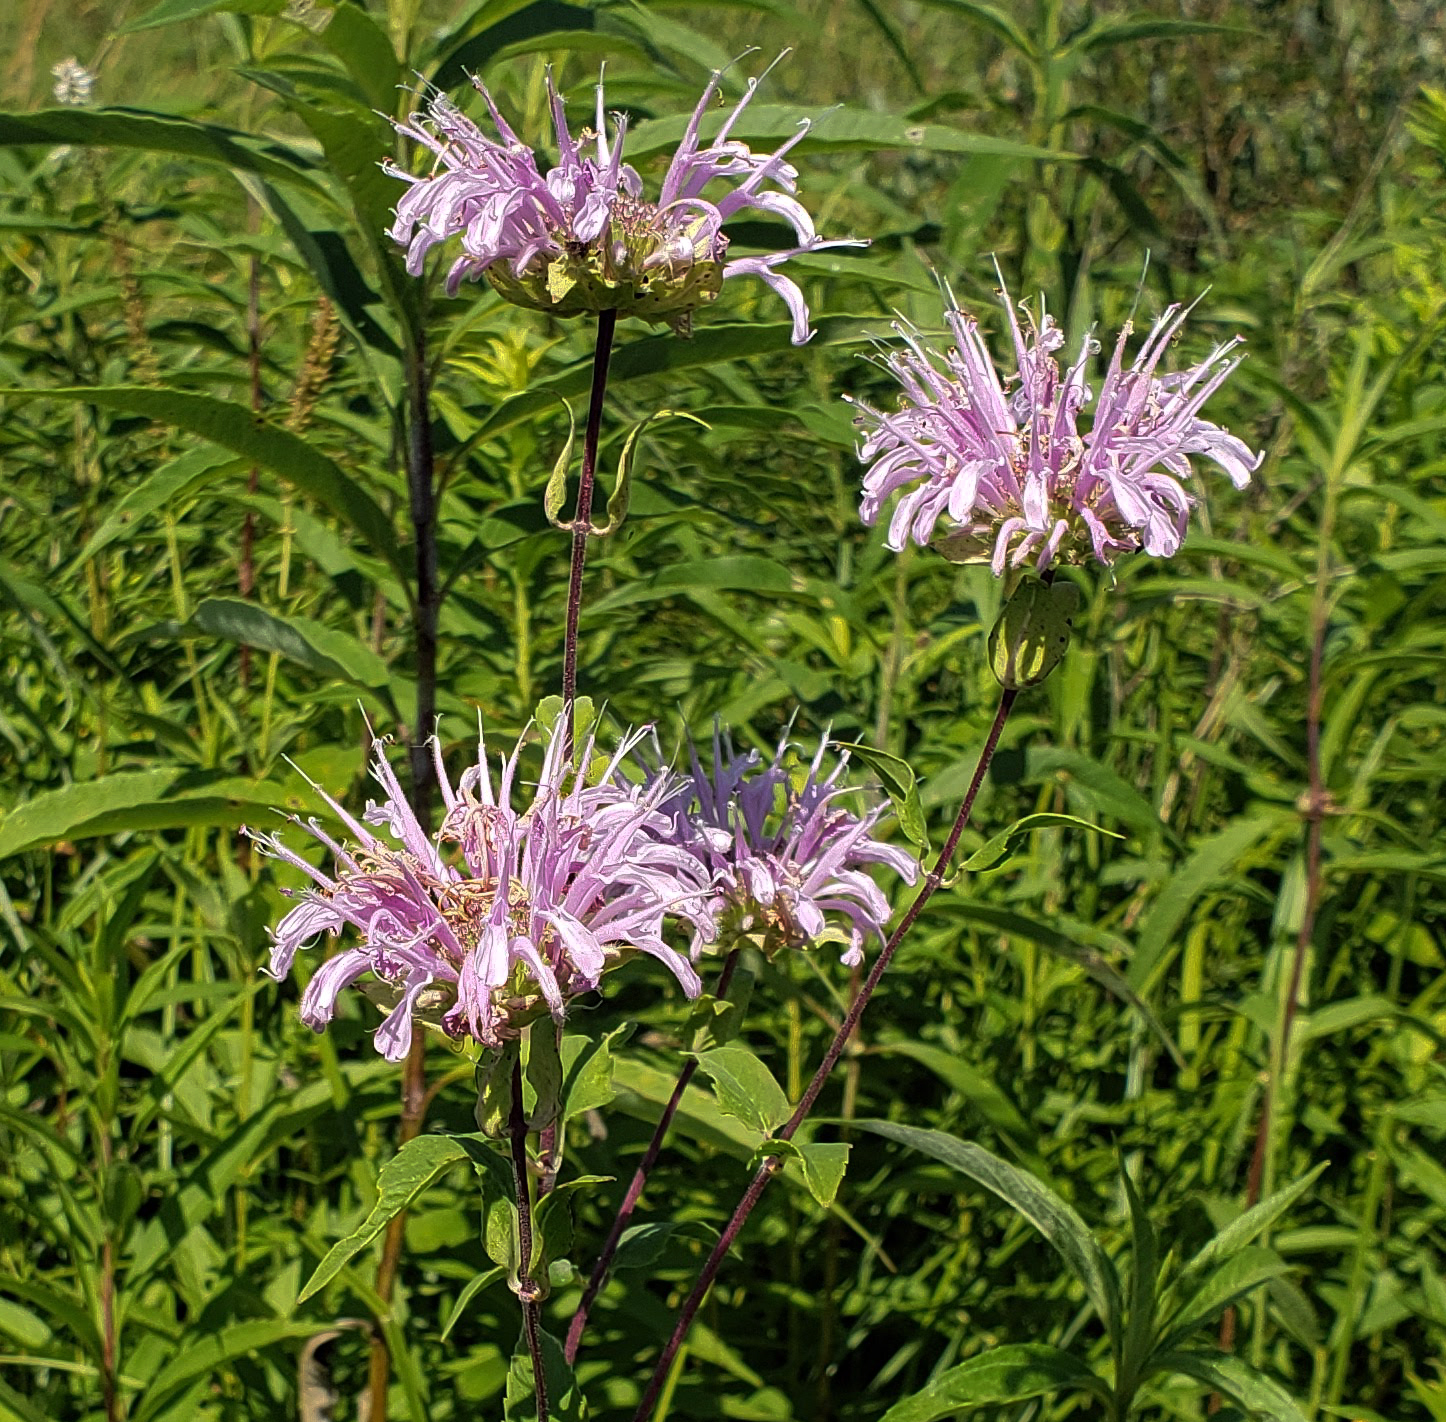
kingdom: Plantae
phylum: Tracheophyta
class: Magnoliopsida
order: Lamiales
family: Lamiaceae
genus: Monarda
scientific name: Monarda fistulosa
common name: Purple beebalm
